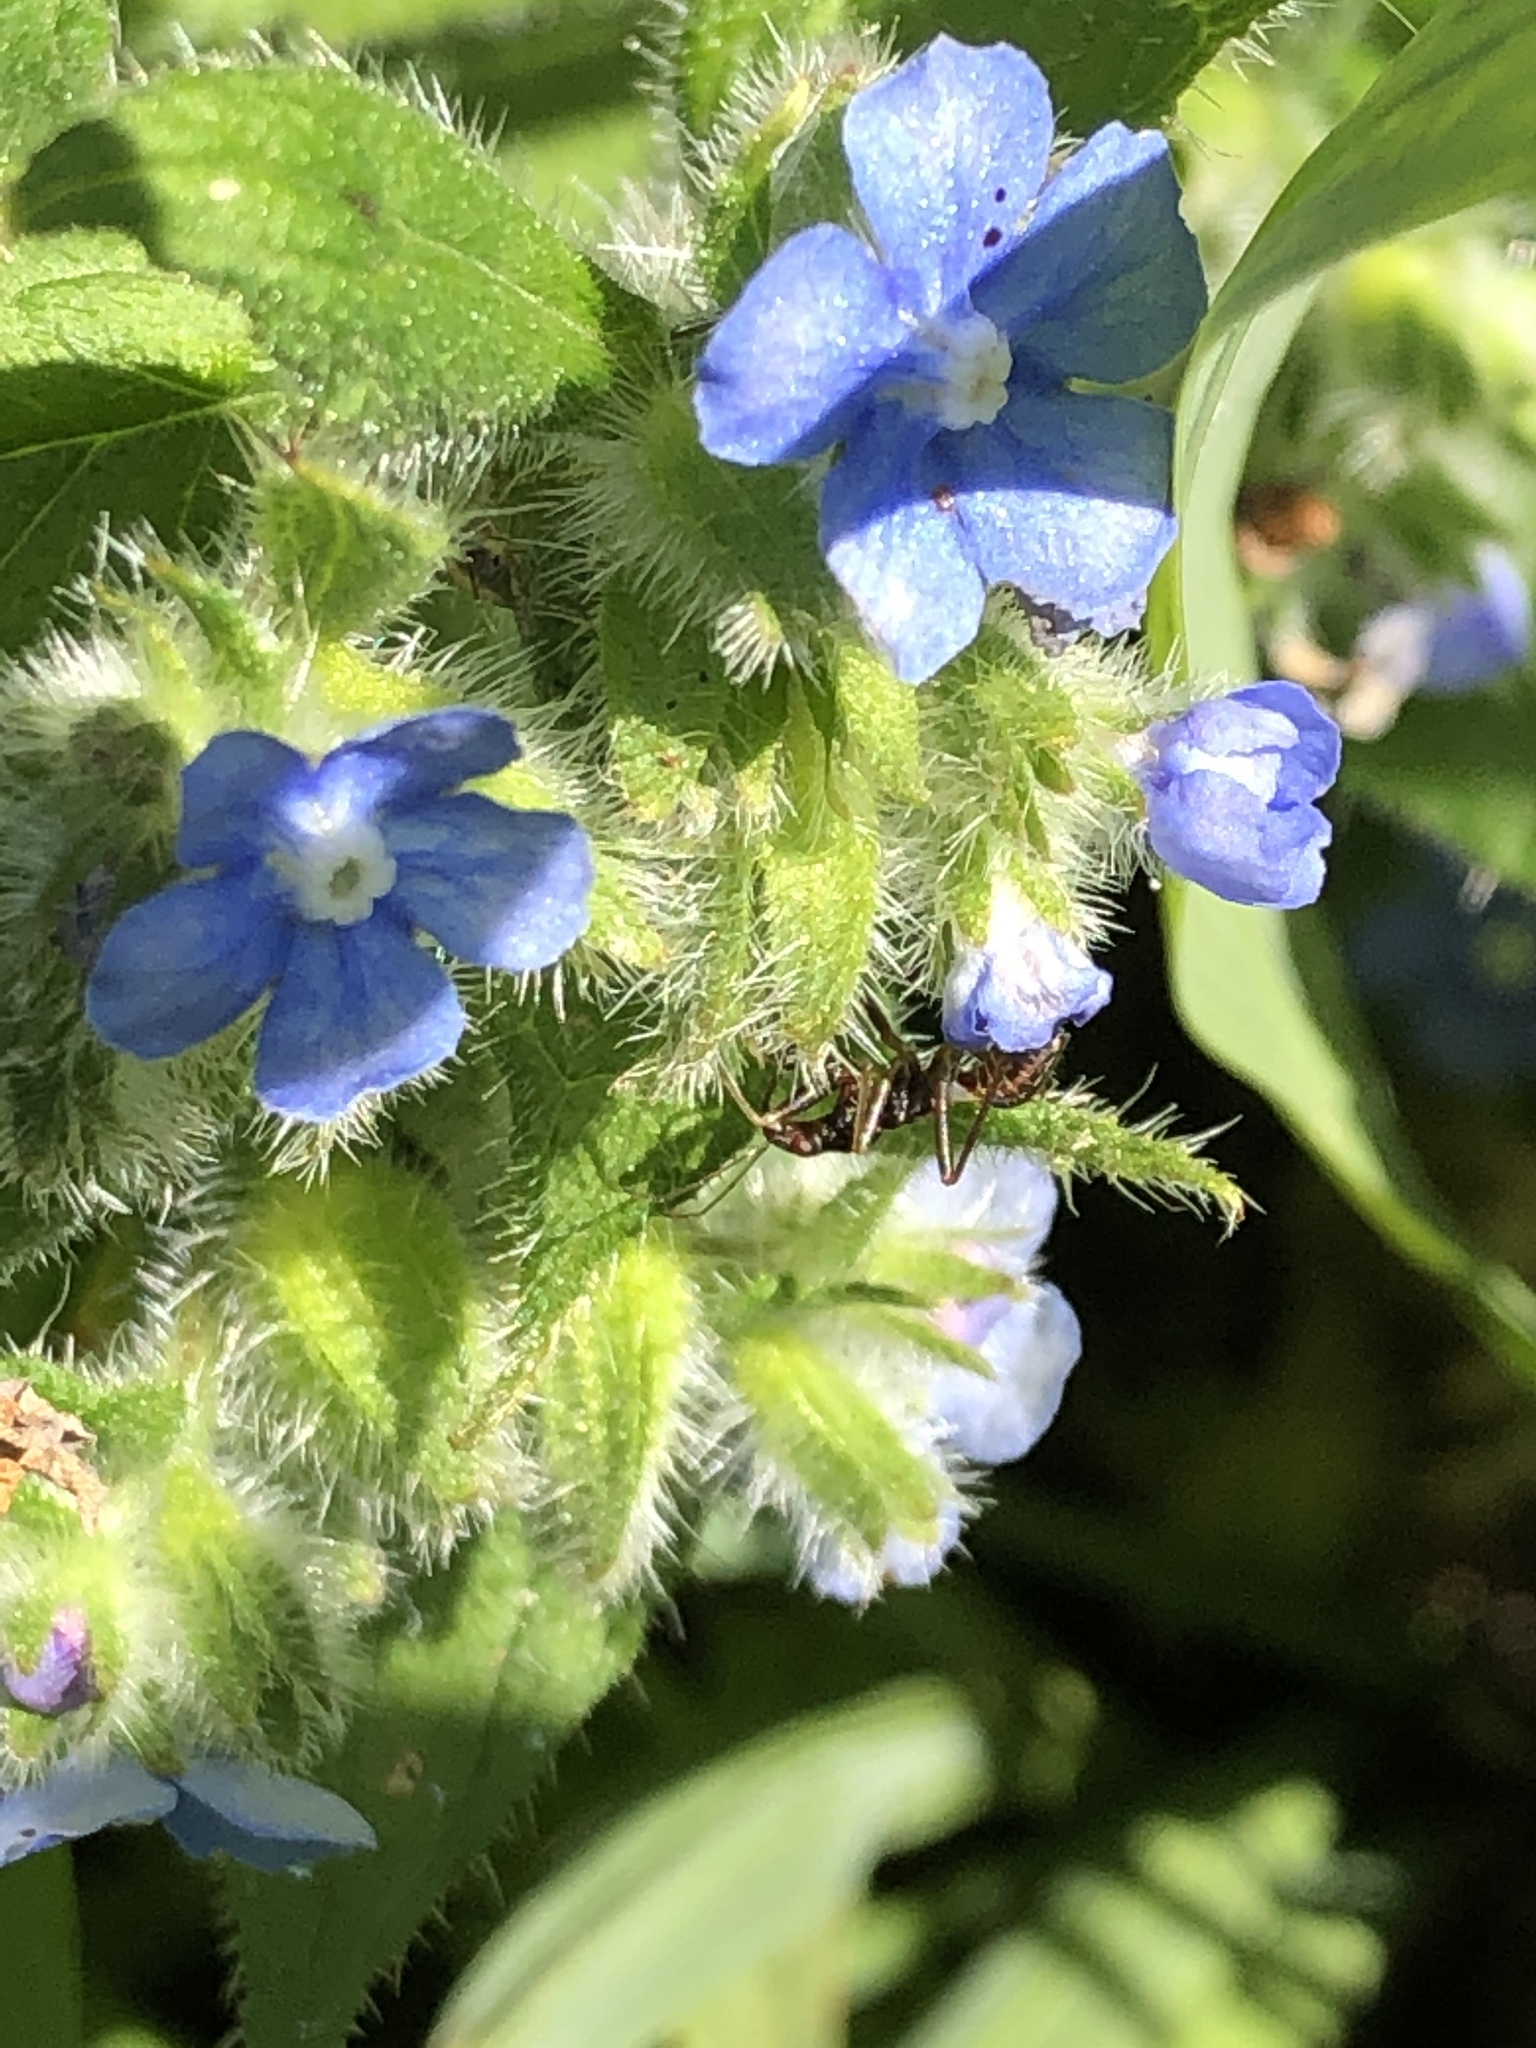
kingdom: Plantae
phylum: Tracheophyta
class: Magnoliopsida
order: Boraginales
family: Boraginaceae
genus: Pentaglottis
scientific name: Pentaglottis sempervirens
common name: Green alkanet
